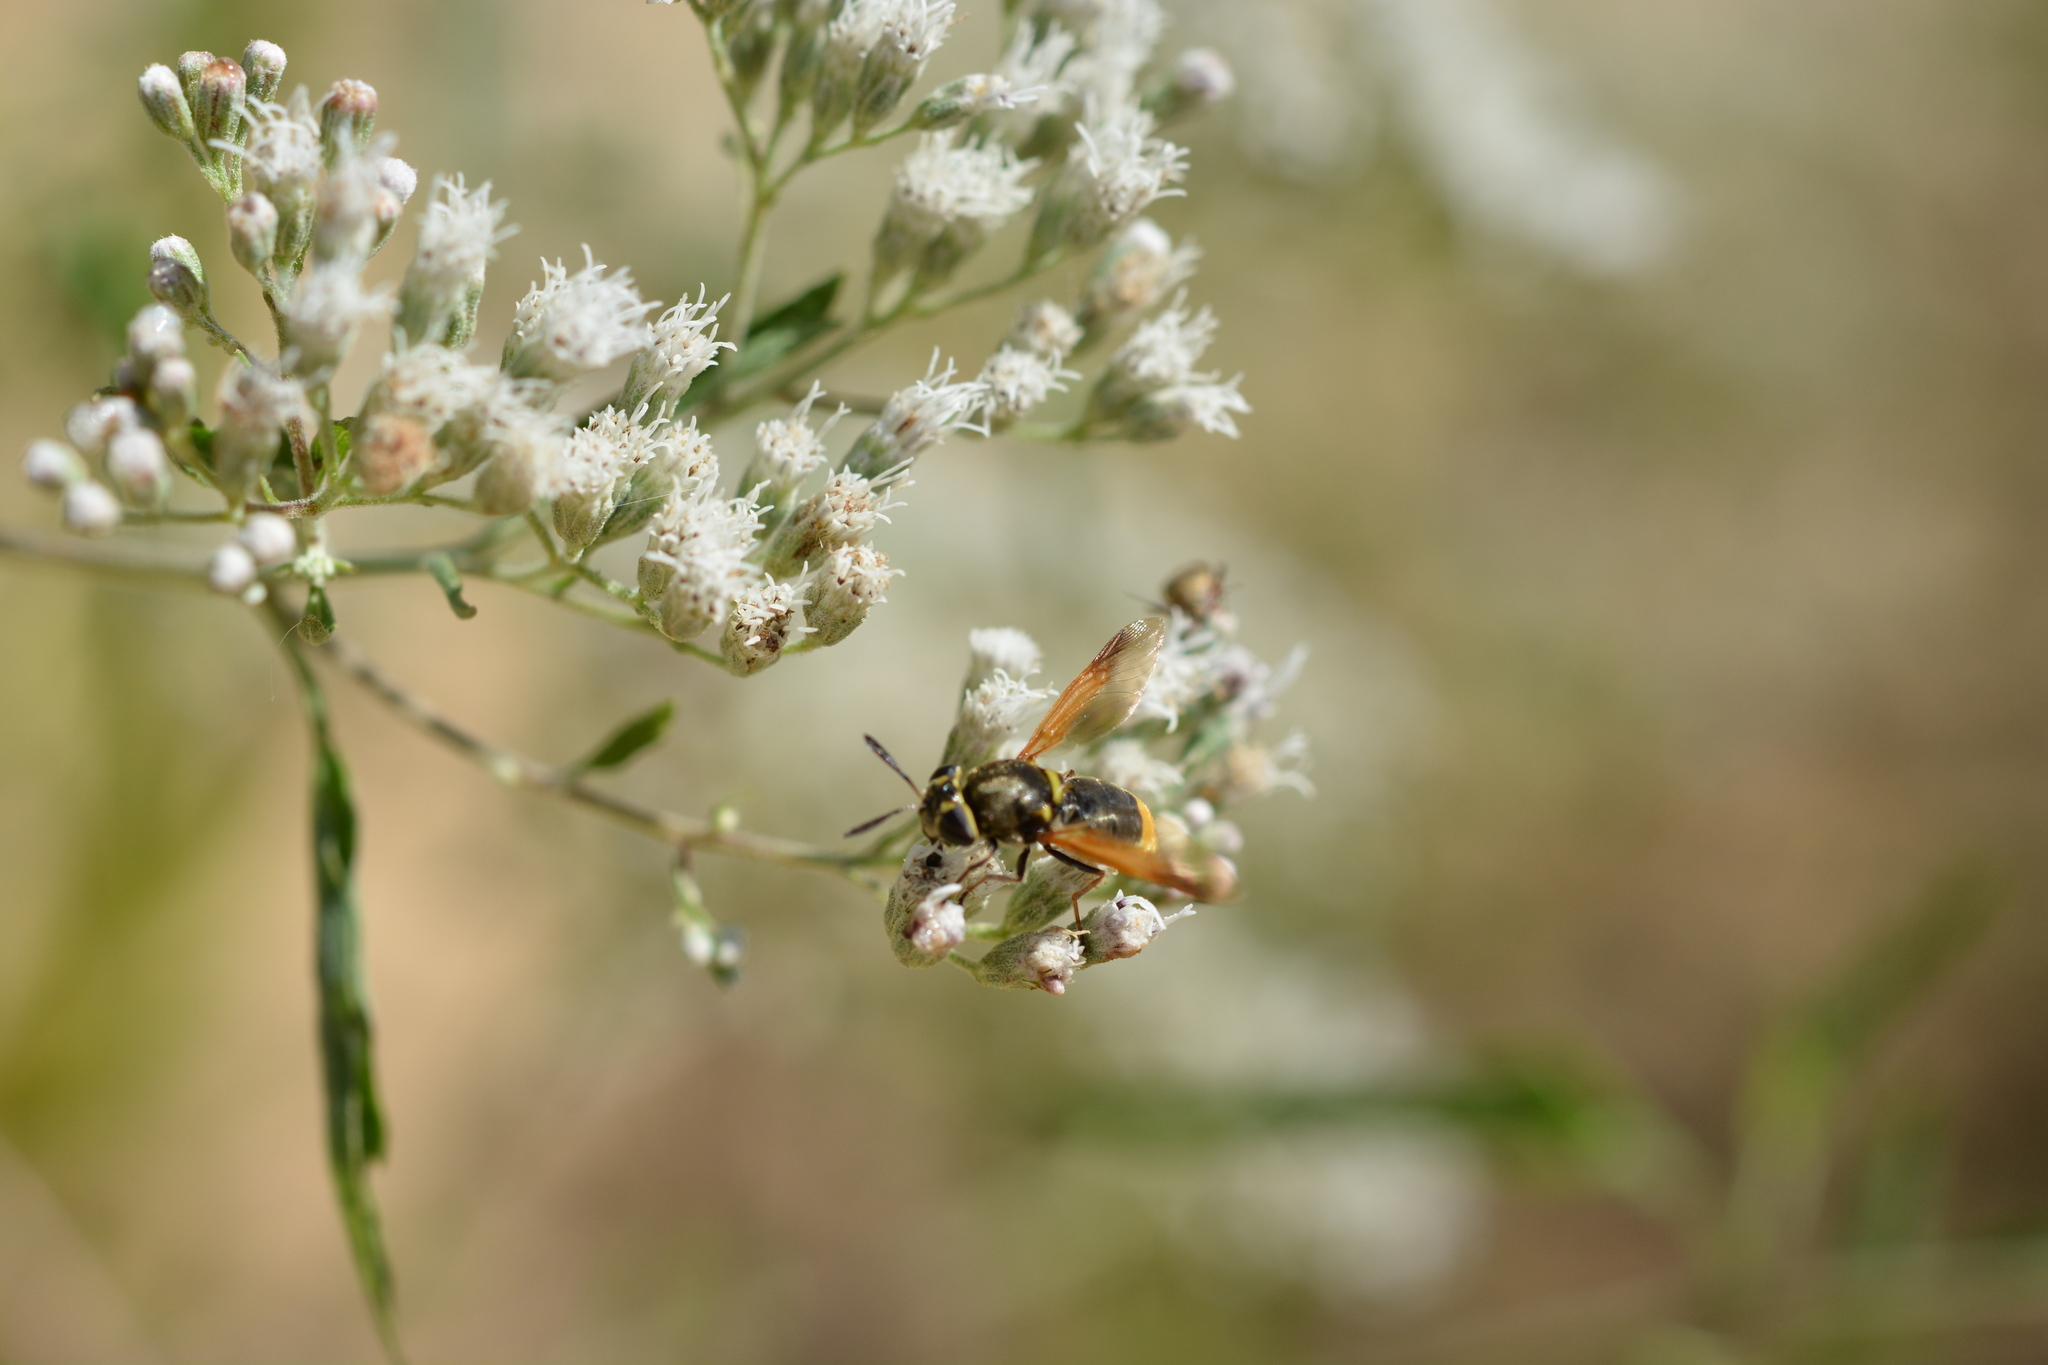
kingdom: Animalia
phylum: Arthropoda
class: Insecta
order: Diptera
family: Stratiomyidae
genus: Hoplitimyia
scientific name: Hoplitimyia mutabilis
